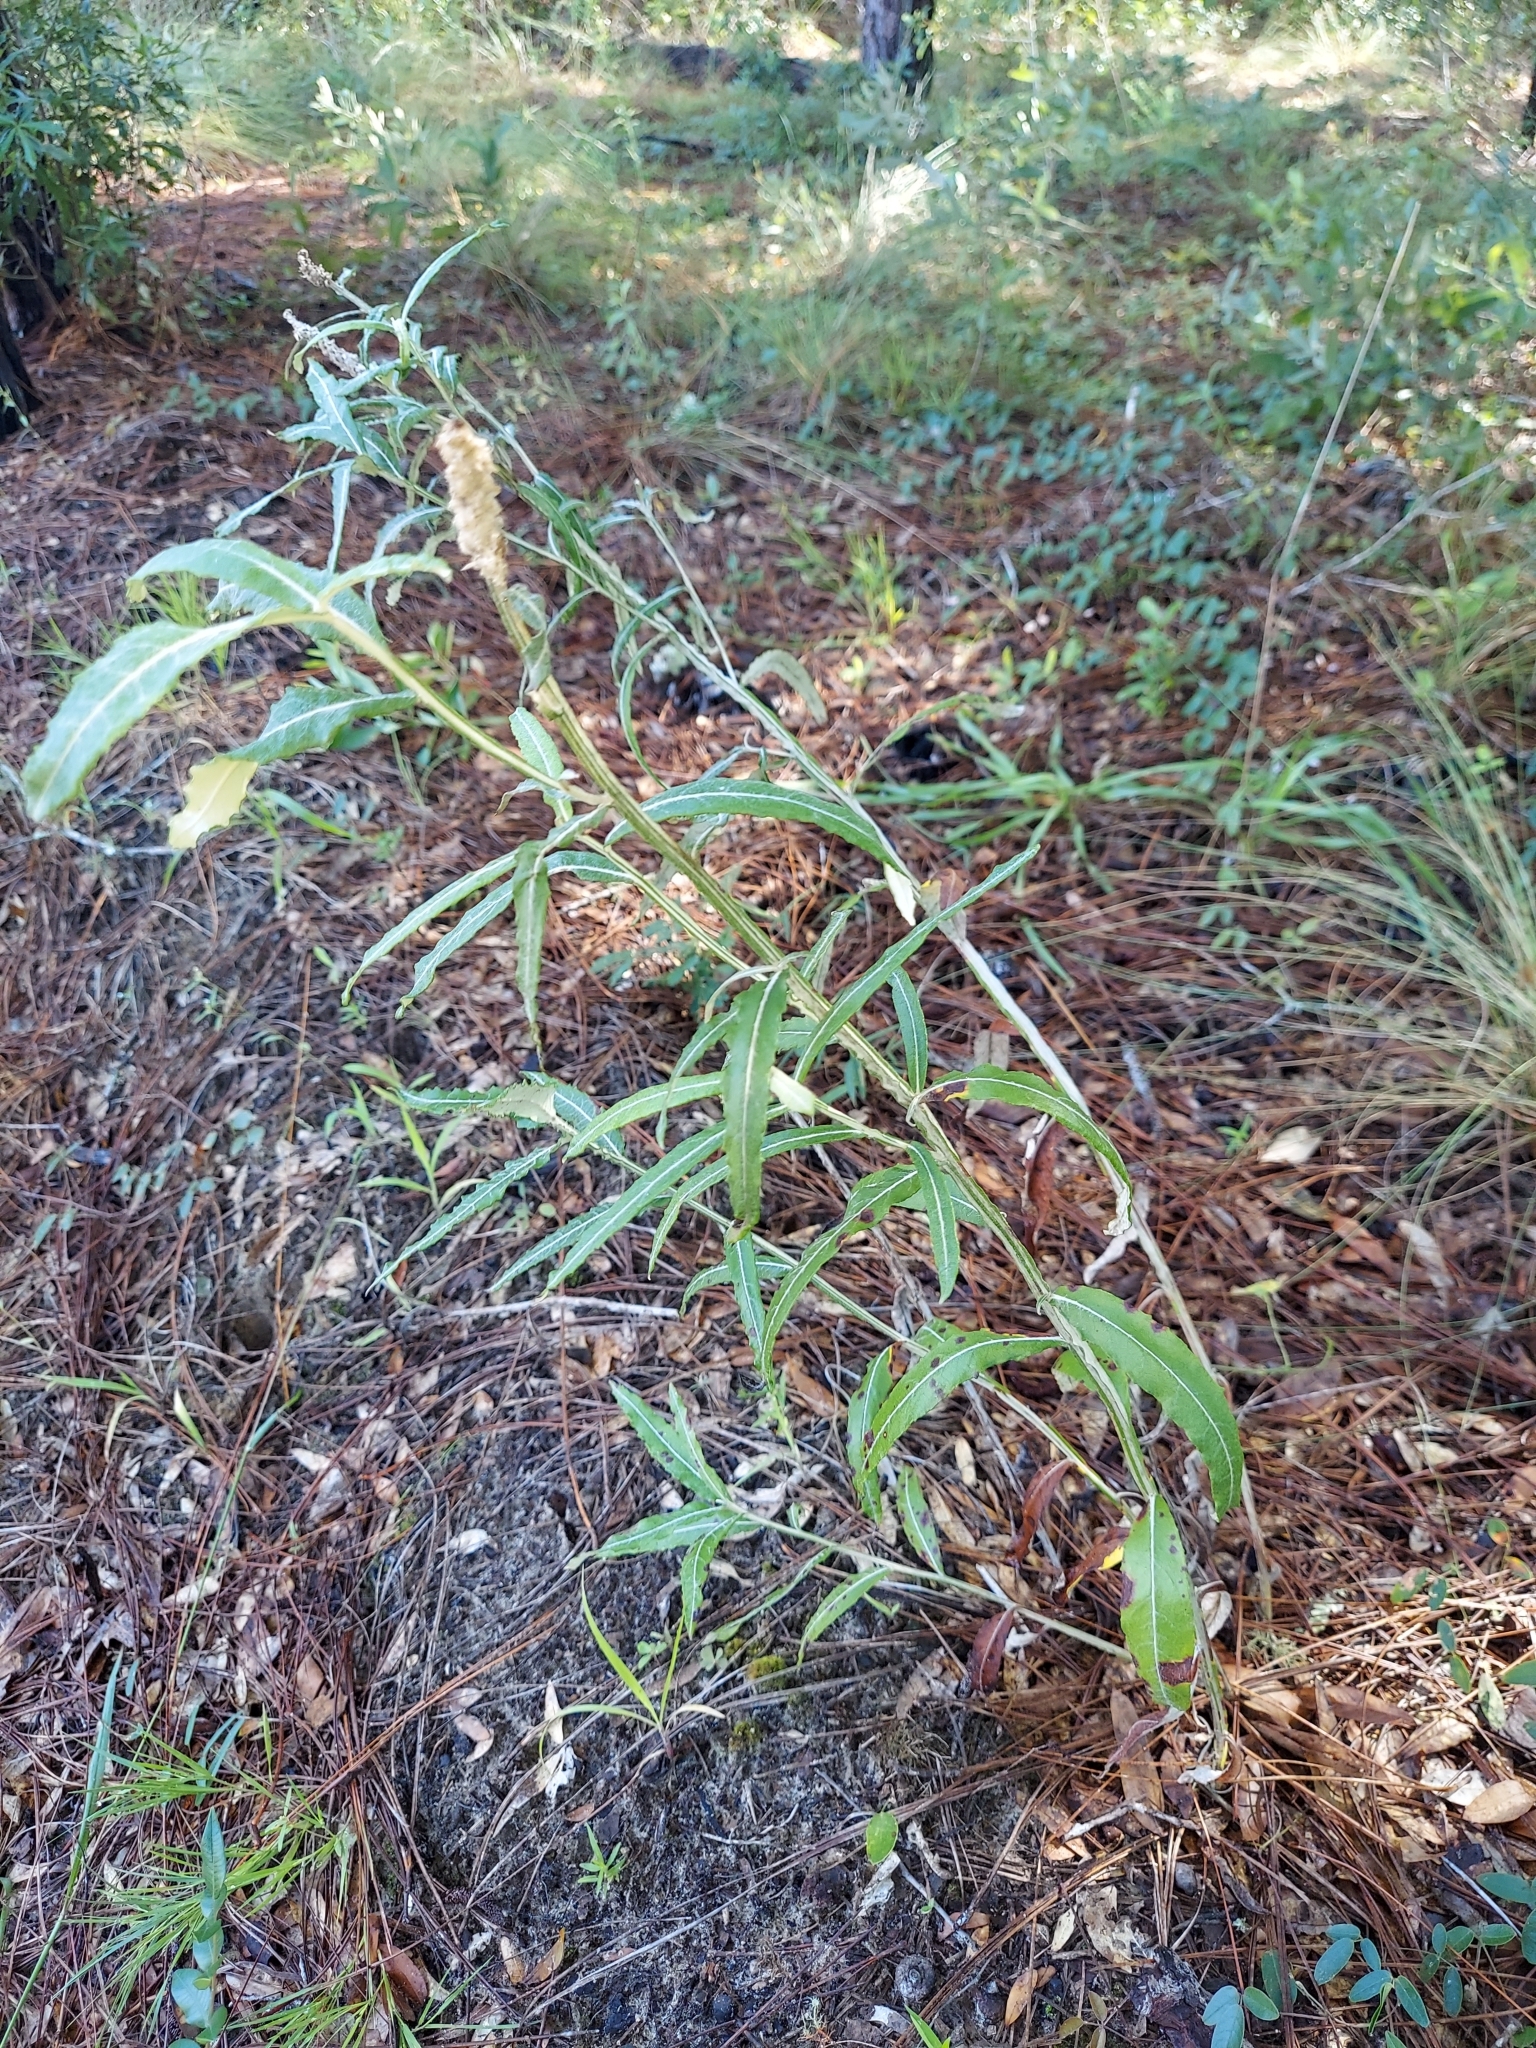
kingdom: Plantae
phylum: Tracheophyta
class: Magnoliopsida
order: Asterales
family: Asteraceae
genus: Pterocaulon
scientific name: Pterocaulon pycnostachyum
